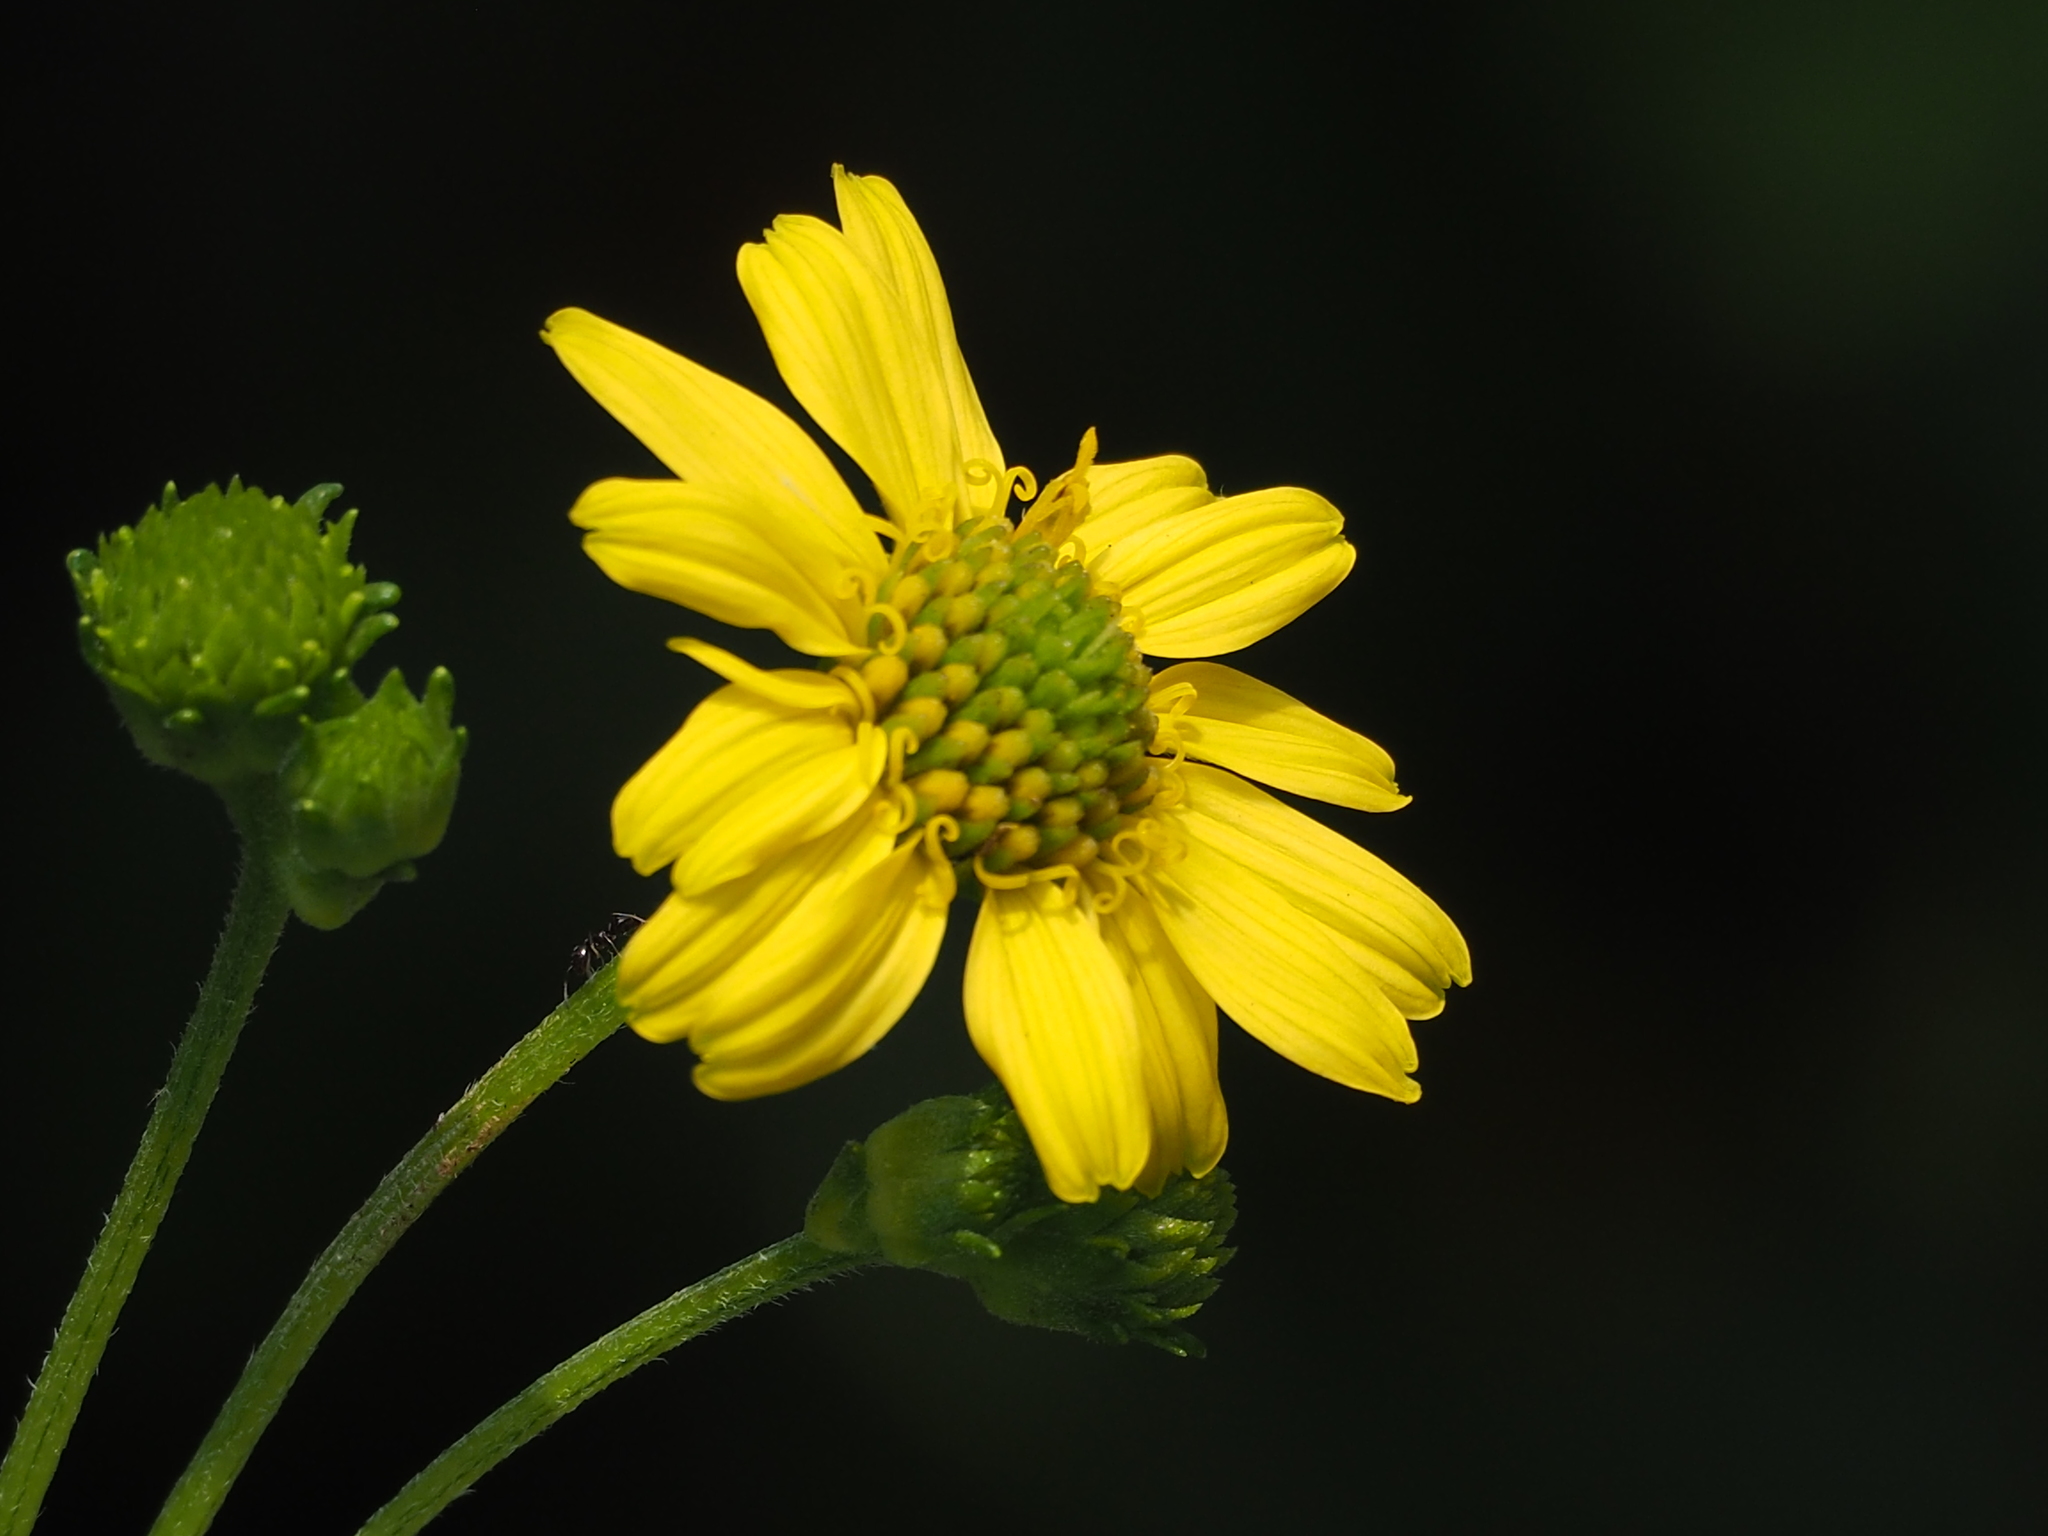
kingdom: Plantae
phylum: Tracheophyta
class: Magnoliopsida
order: Asterales
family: Asteraceae
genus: Wollastonia
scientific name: Wollastonia biflora
